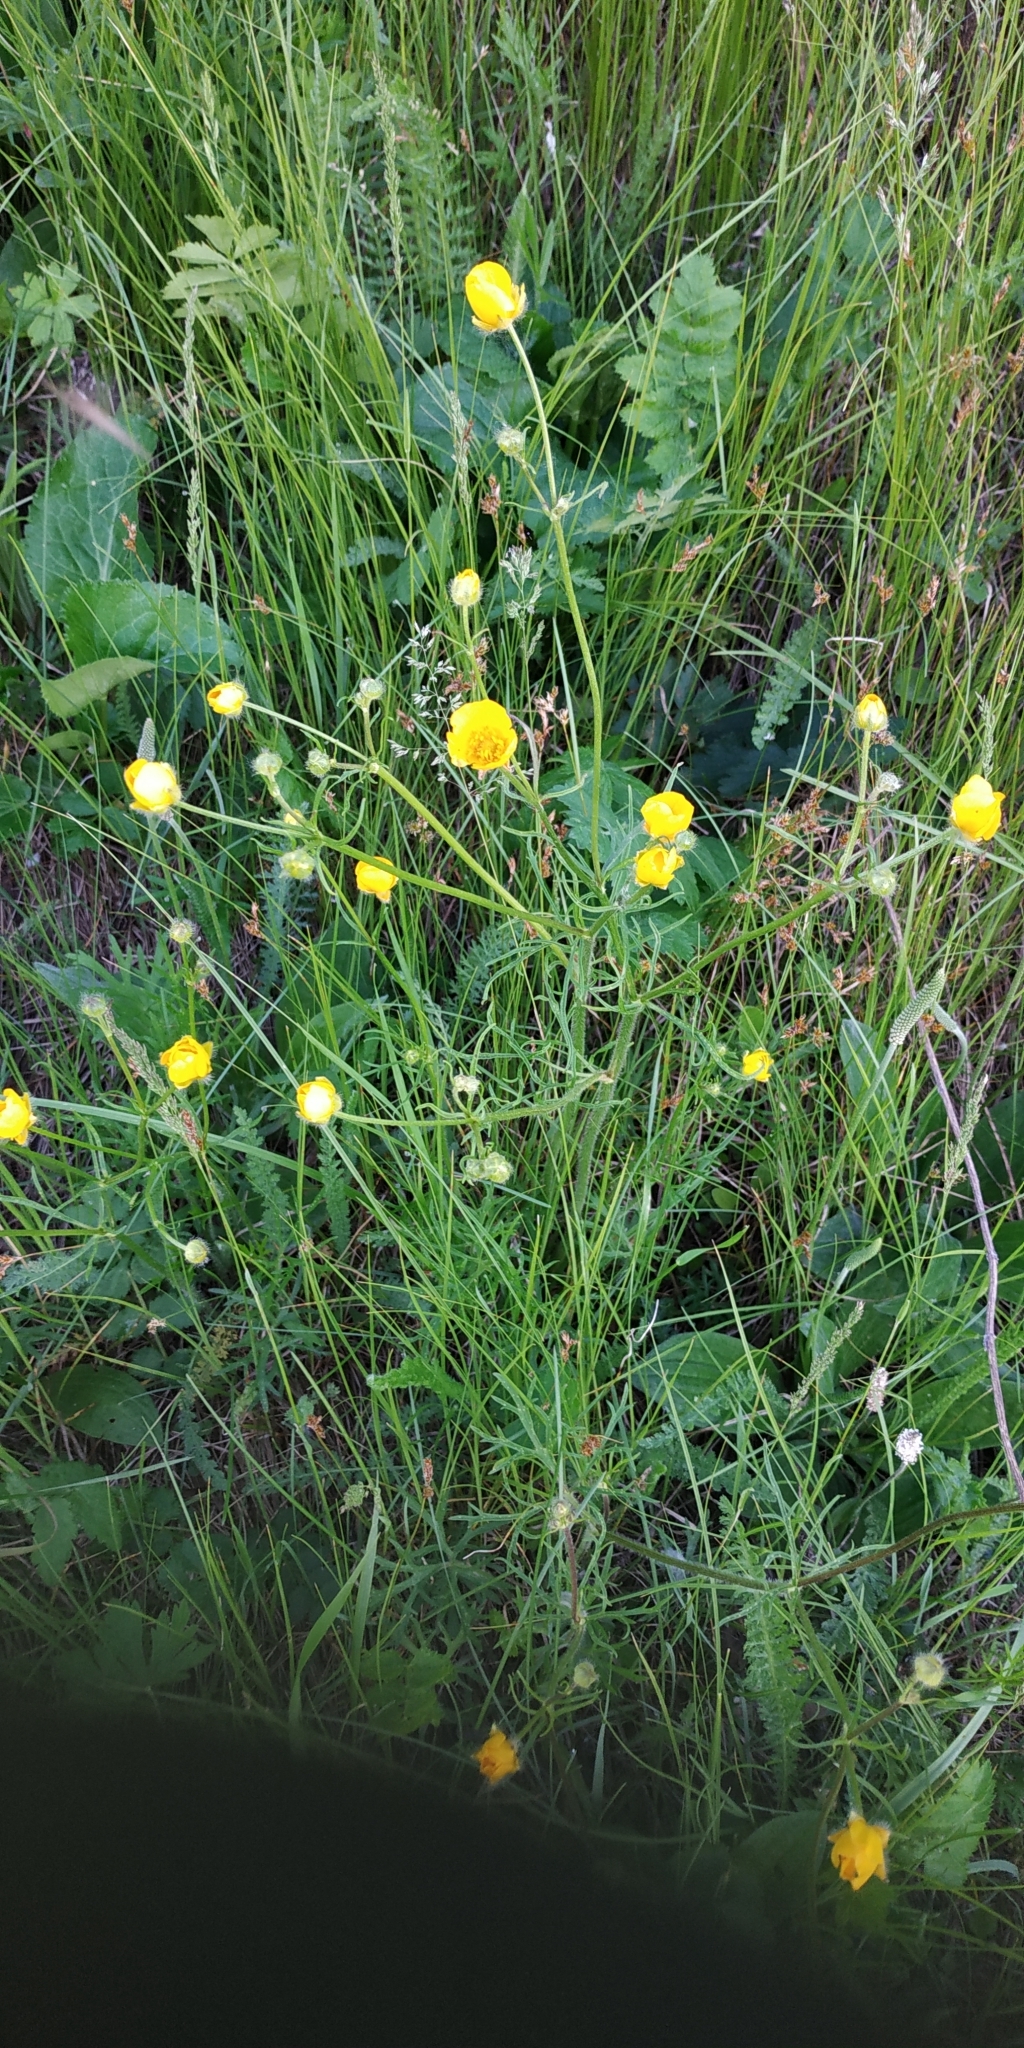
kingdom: Plantae
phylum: Tracheophyta
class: Magnoliopsida
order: Ranunculales
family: Ranunculaceae
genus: Ranunculus
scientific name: Ranunculus polyanthemos
